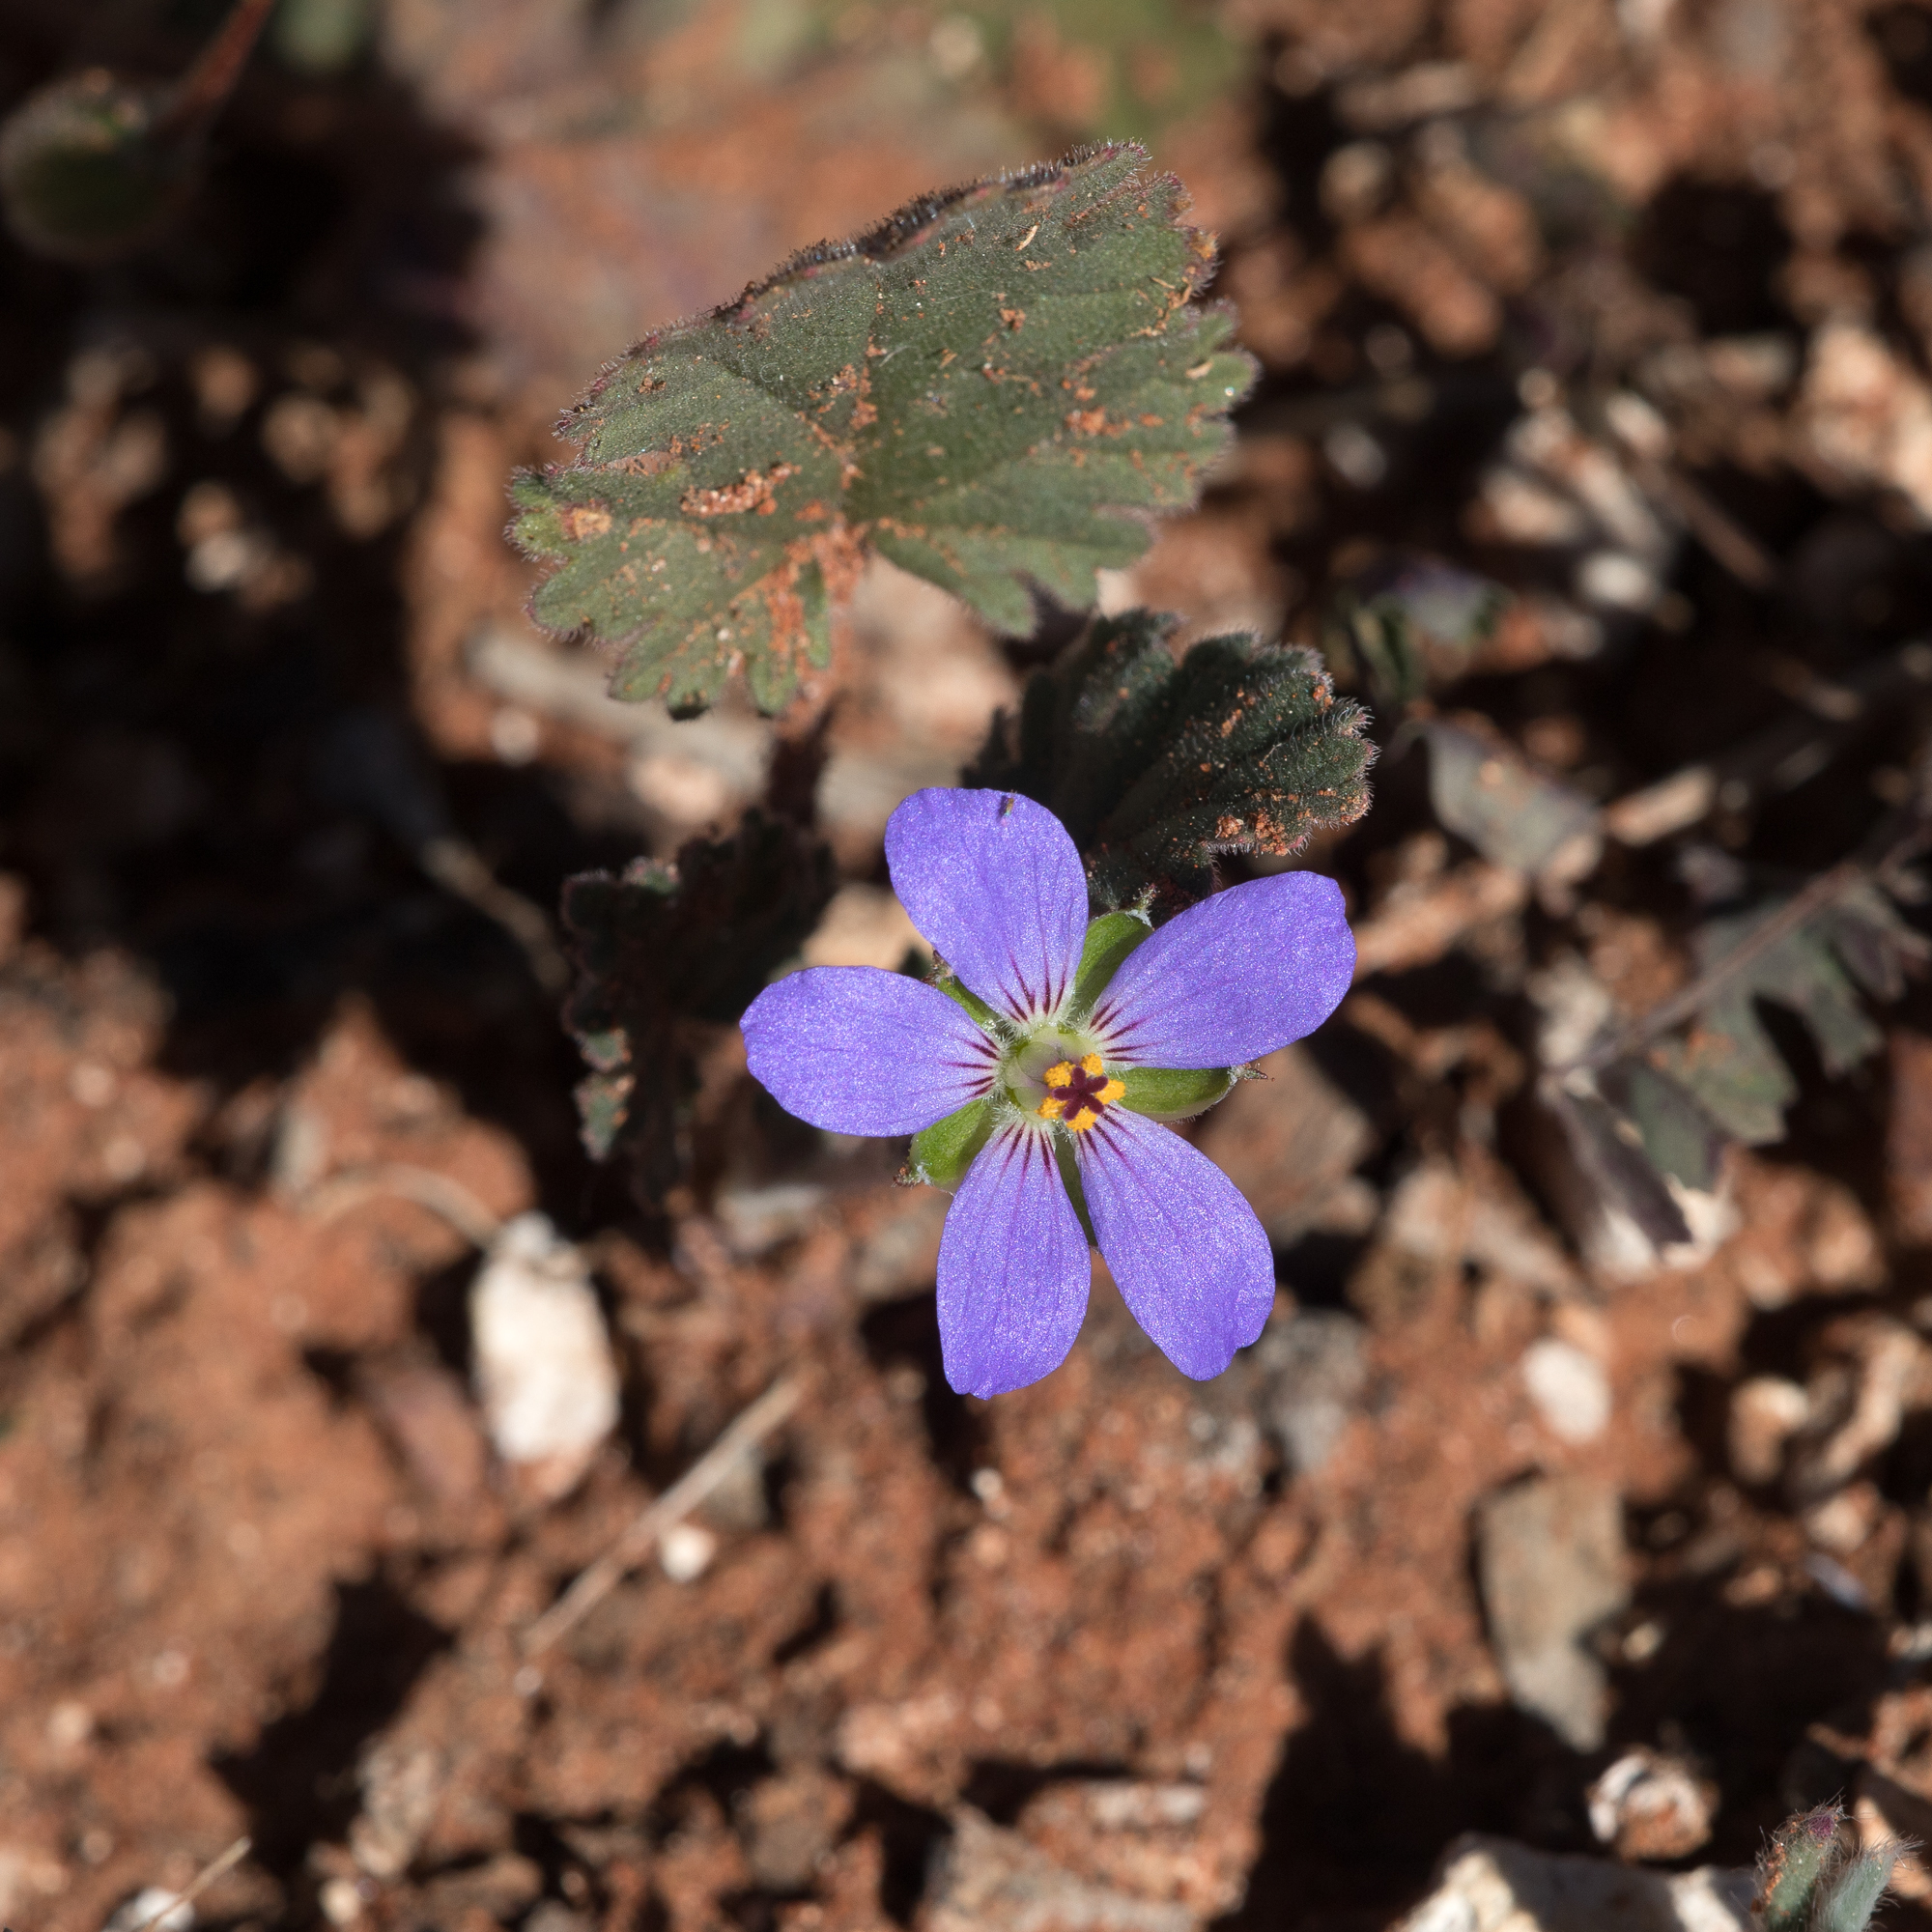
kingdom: Plantae
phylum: Tracheophyta
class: Magnoliopsida
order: Geraniales
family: Geraniaceae
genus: Erodium
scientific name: Erodium carolinianum
